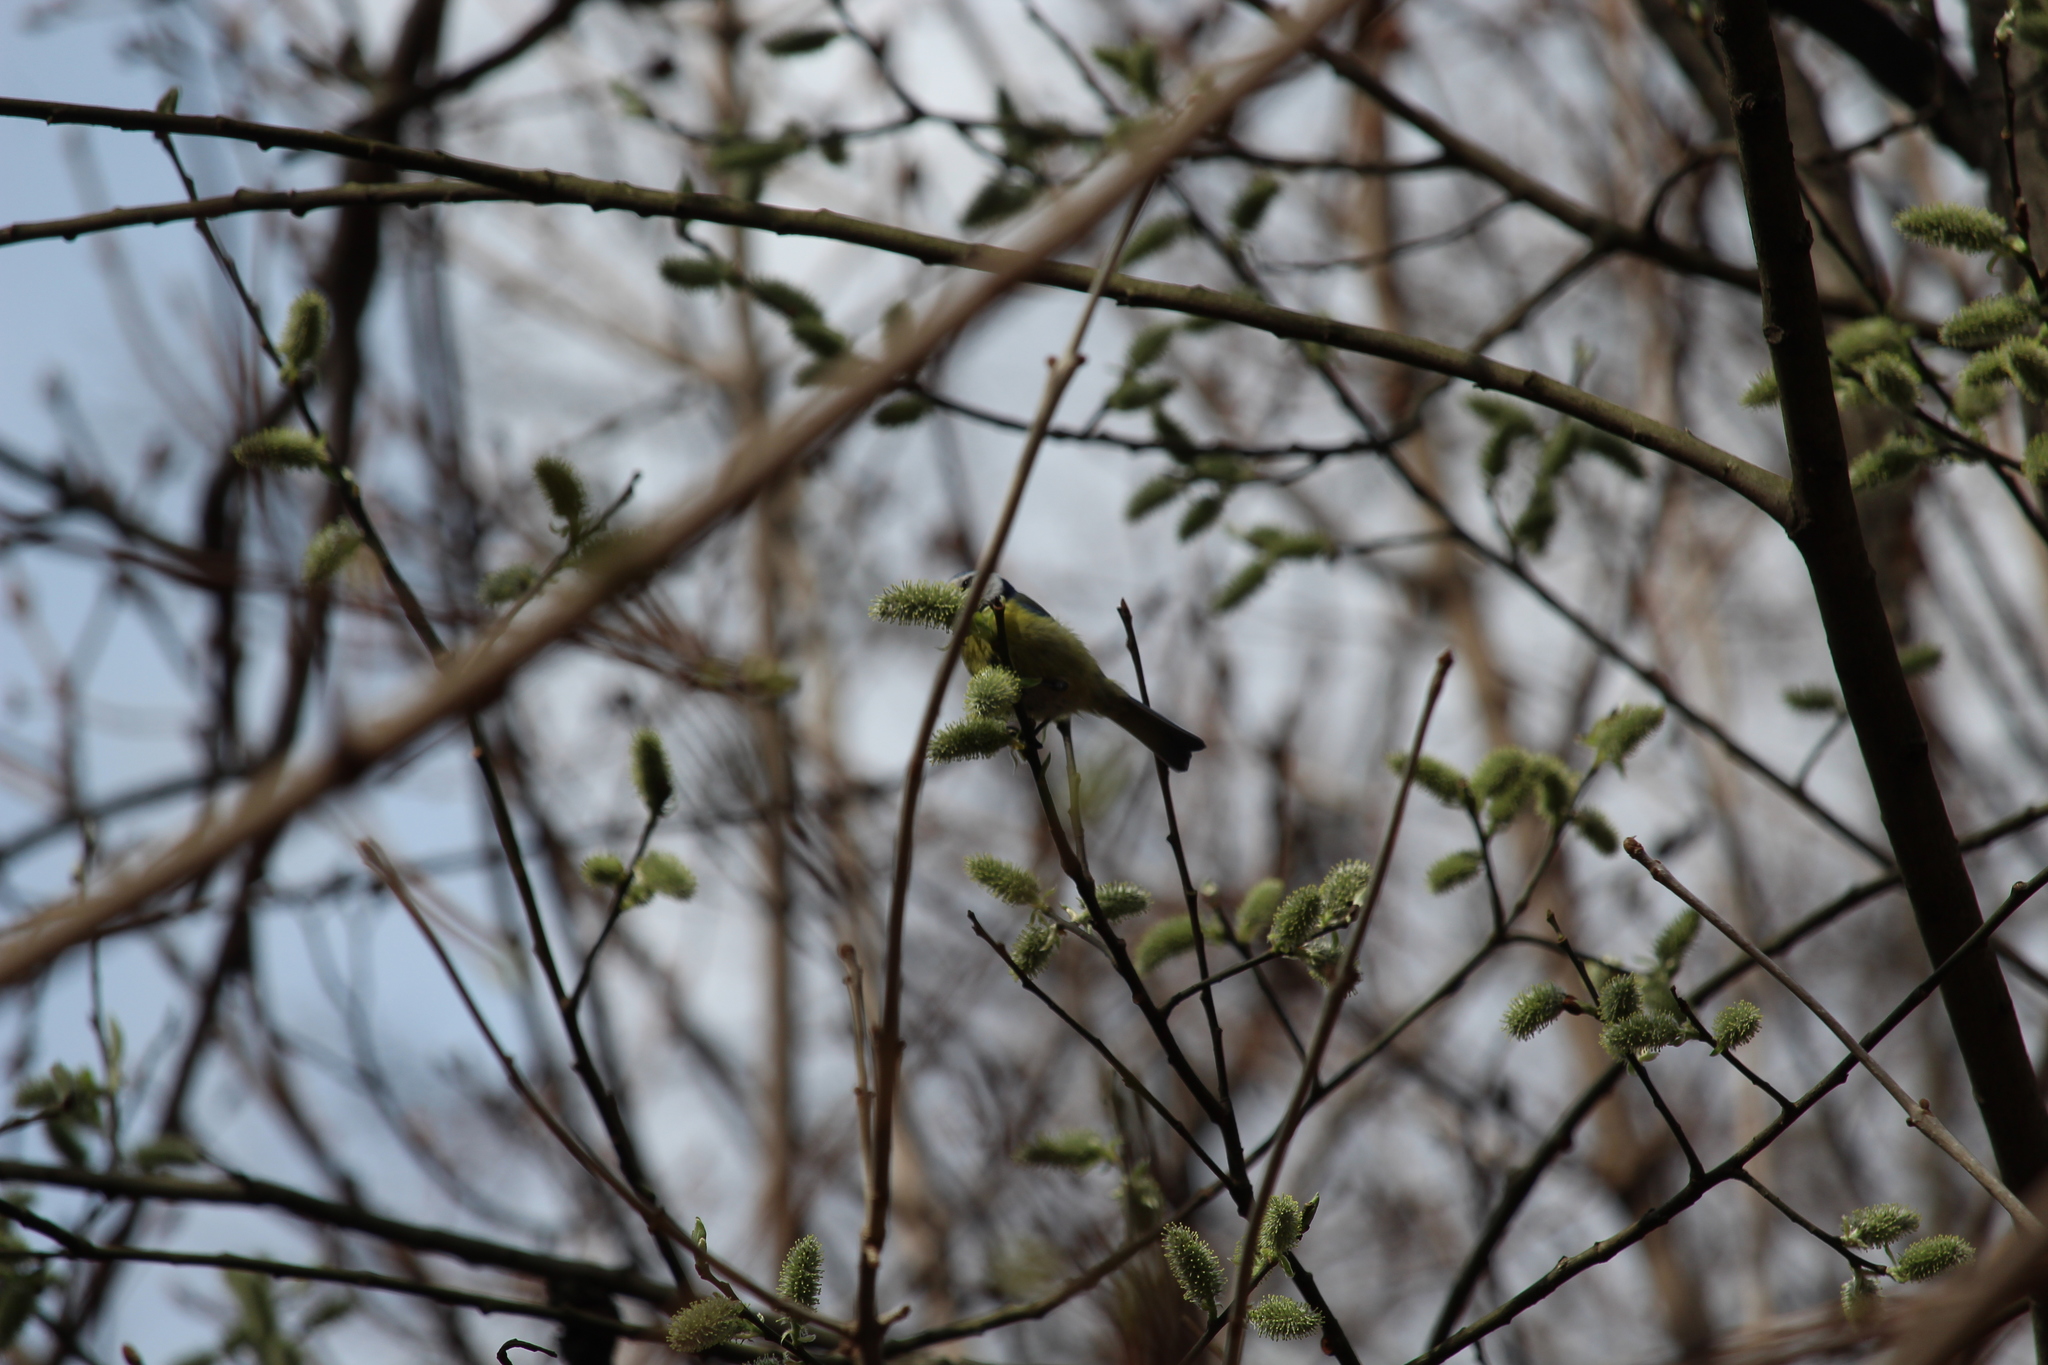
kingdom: Animalia
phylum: Chordata
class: Aves
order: Passeriformes
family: Paridae
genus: Cyanistes
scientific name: Cyanistes caeruleus
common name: Eurasian blue tit
